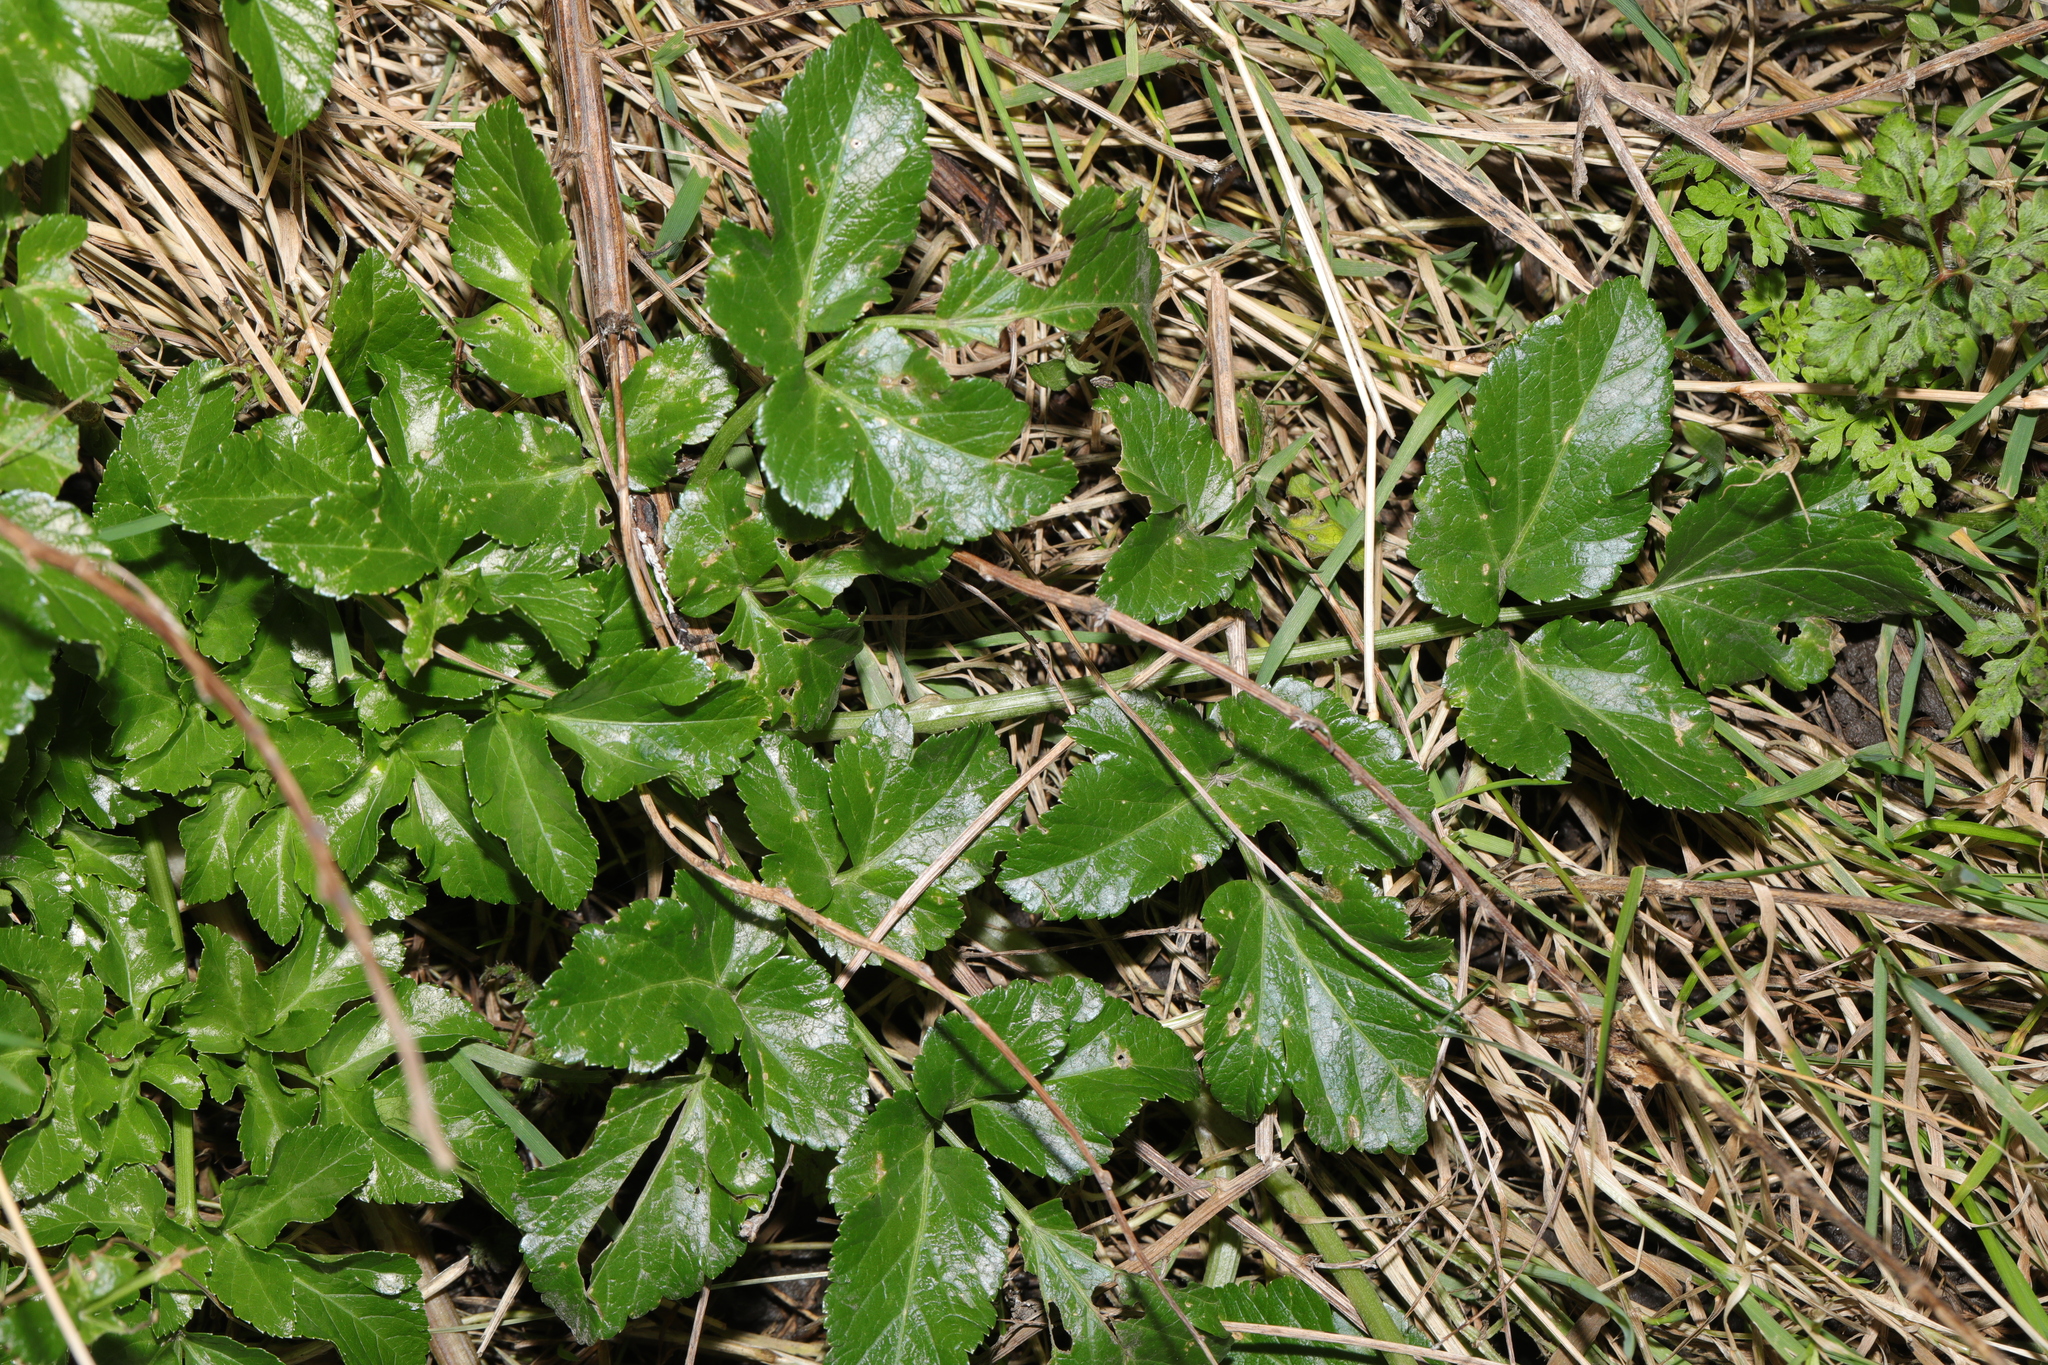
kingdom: Plantae
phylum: Tracheophyta
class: Magnoliopsida
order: Apiales
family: Apiaceae
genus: Smyrnium
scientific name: Smyrnium olusatrum
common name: Alexanders
